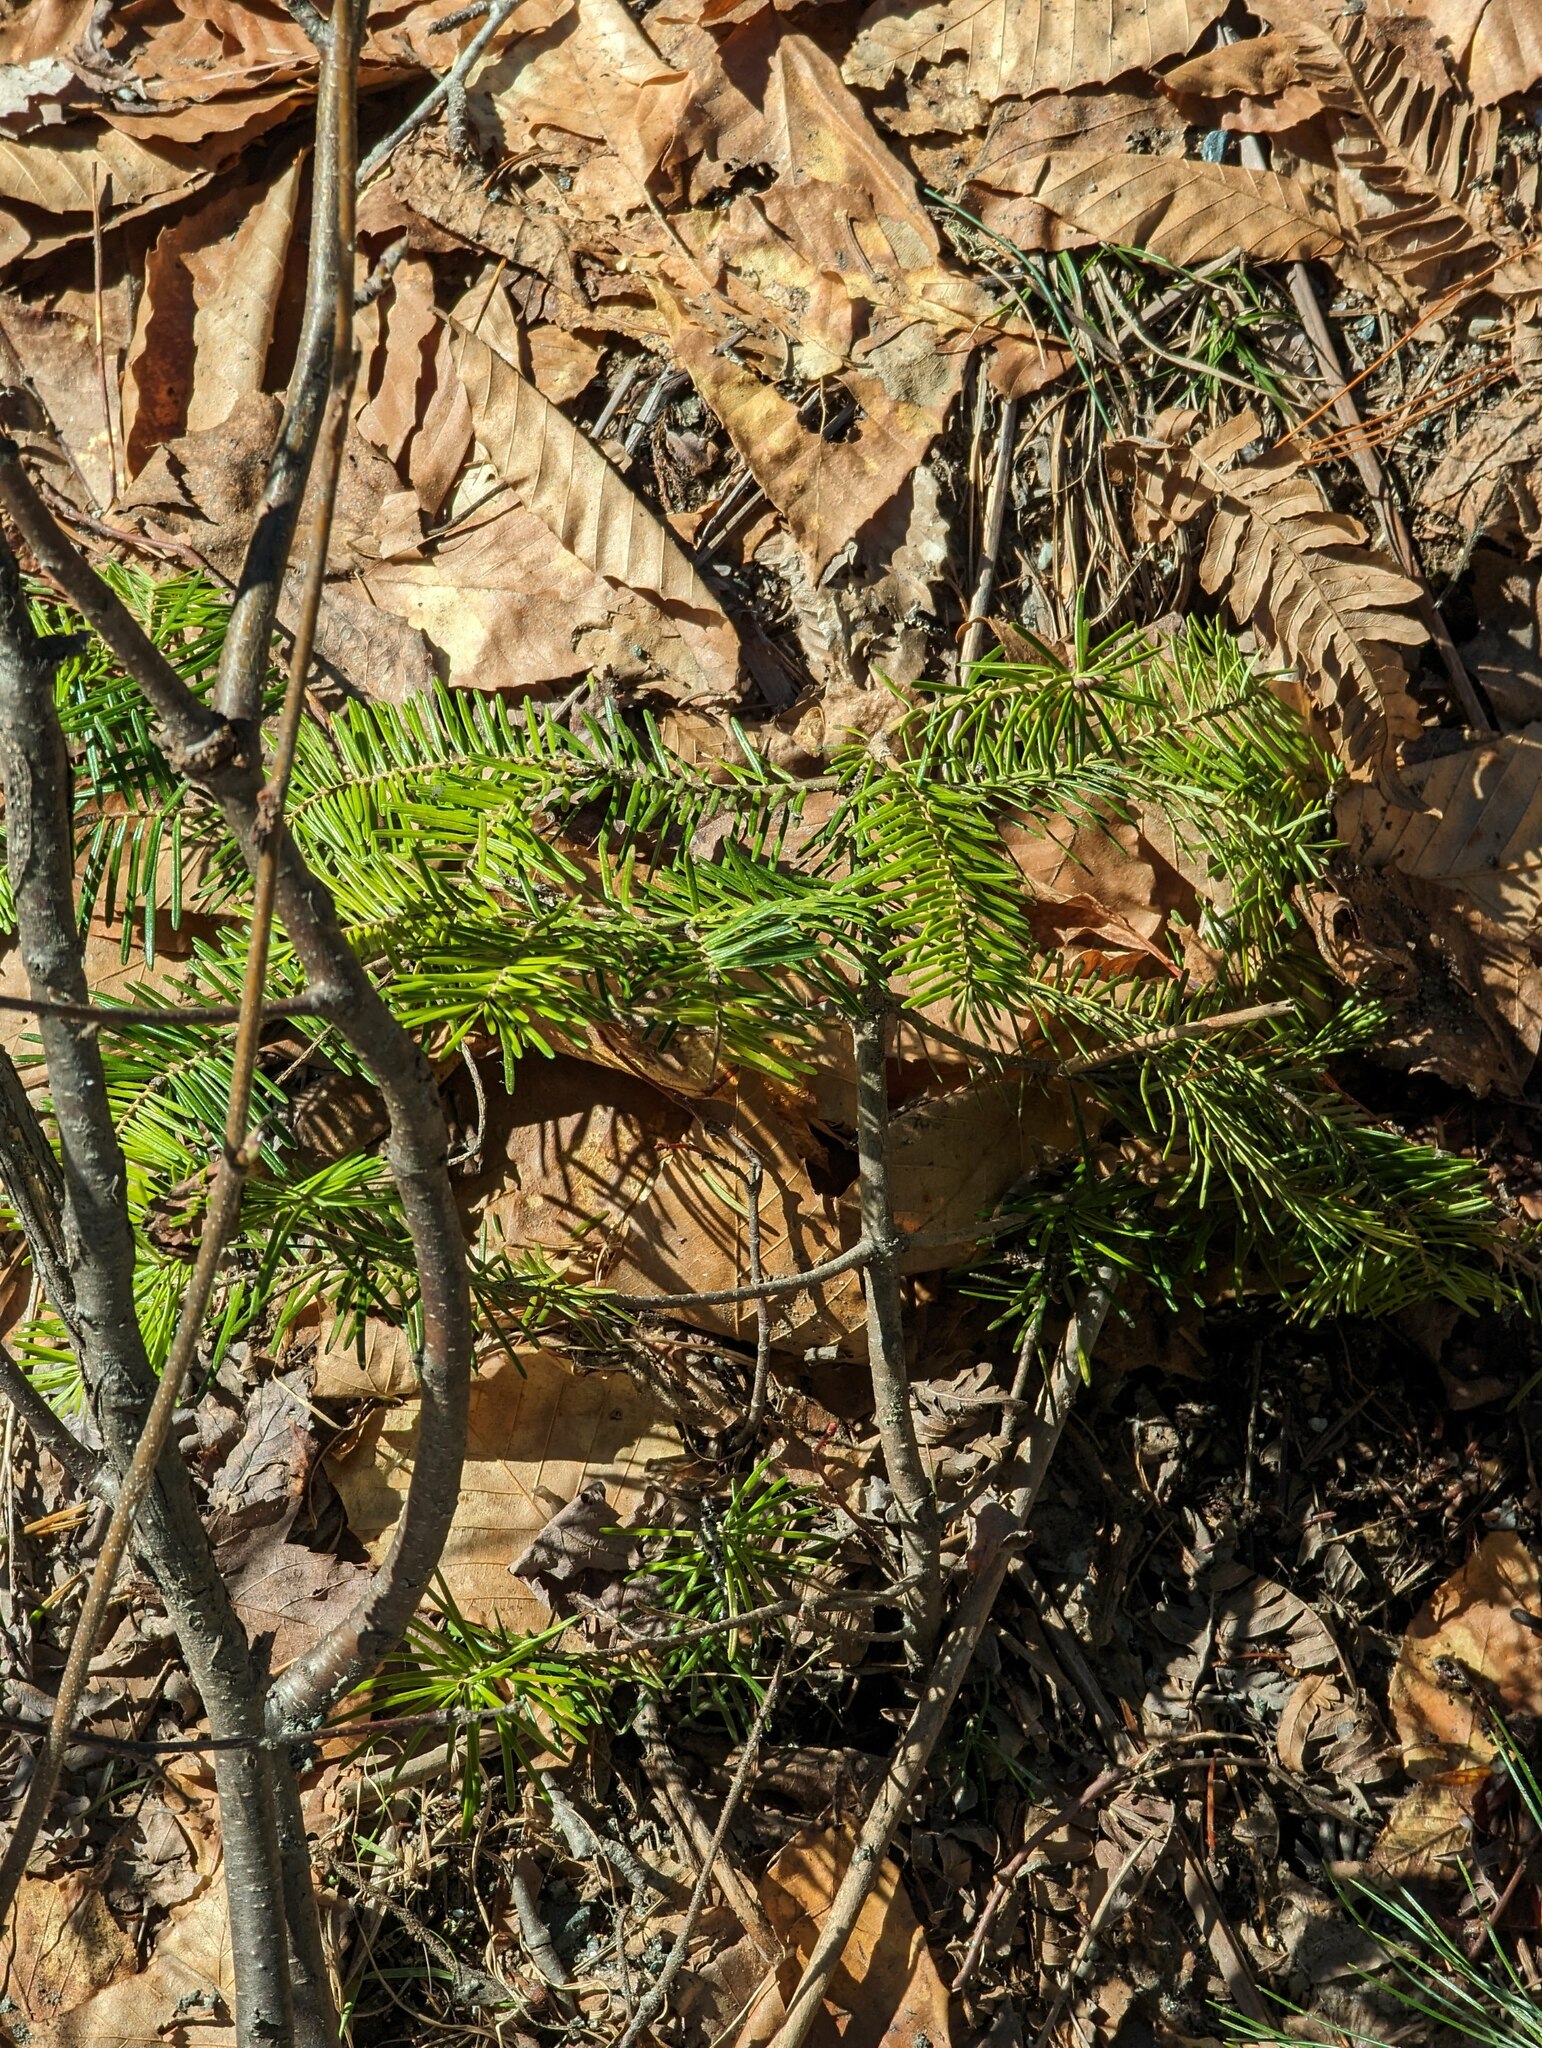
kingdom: Plantae
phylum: Tracheophyta
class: Pinopsida
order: Pinales
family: Pinaceae
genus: Abies
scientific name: Abies balsamea
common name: Balsam fir
